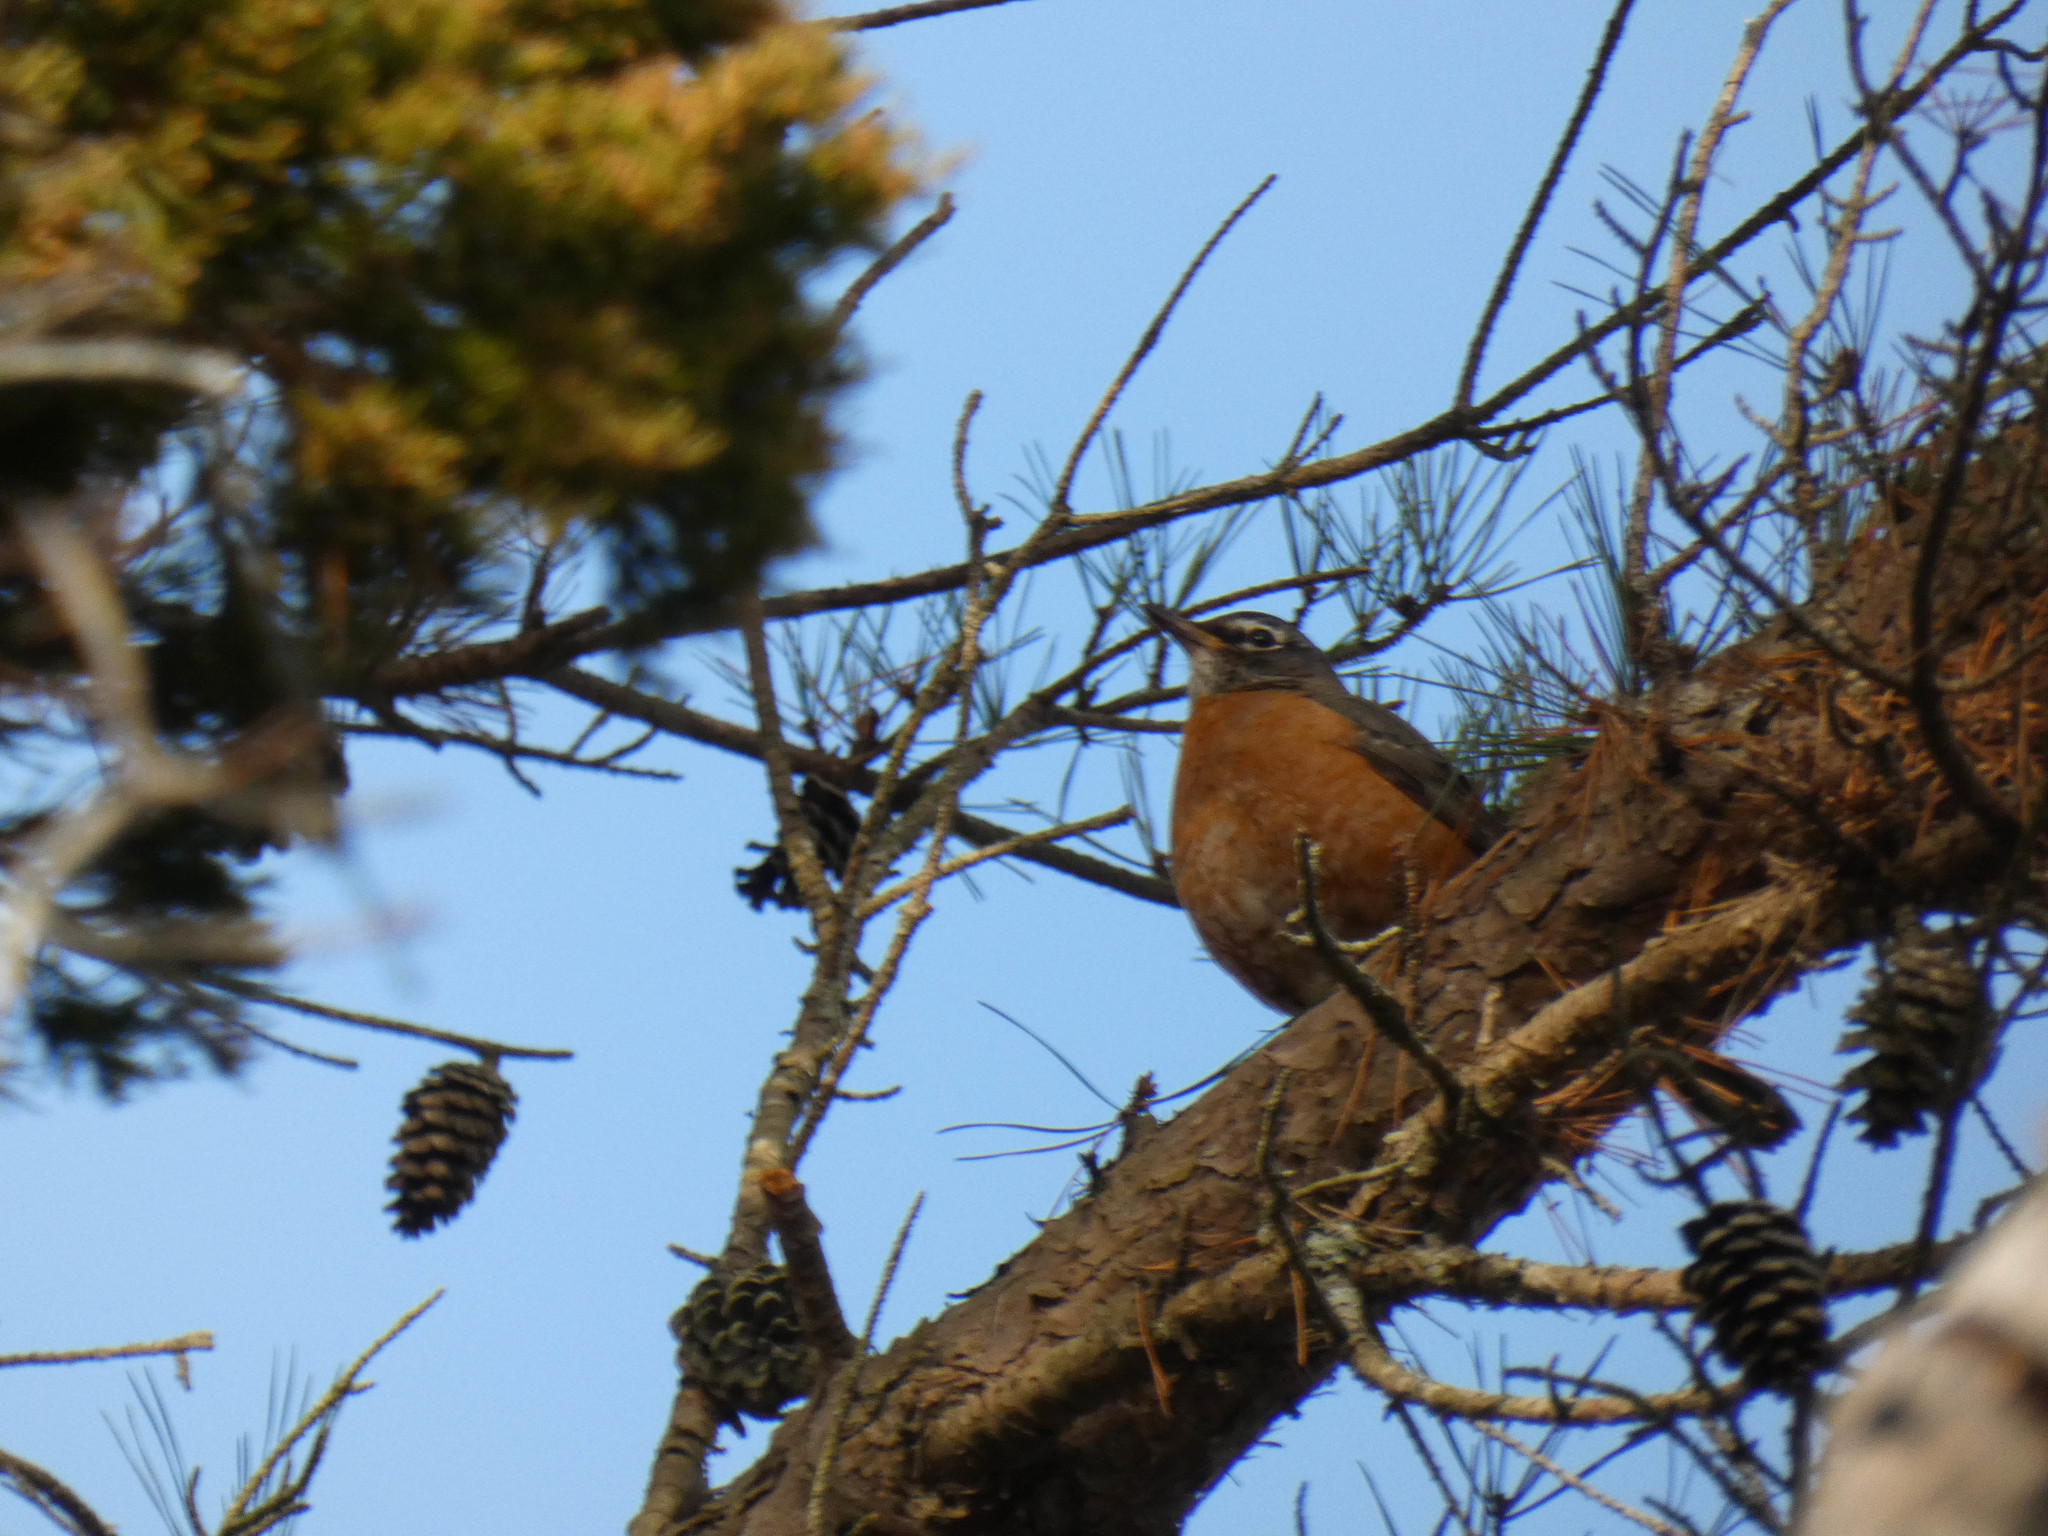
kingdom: Animalia
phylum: Chordata
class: Aves
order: Passeriformes
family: Turdidae
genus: Turdus
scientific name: Turdus migratorius
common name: American robin
